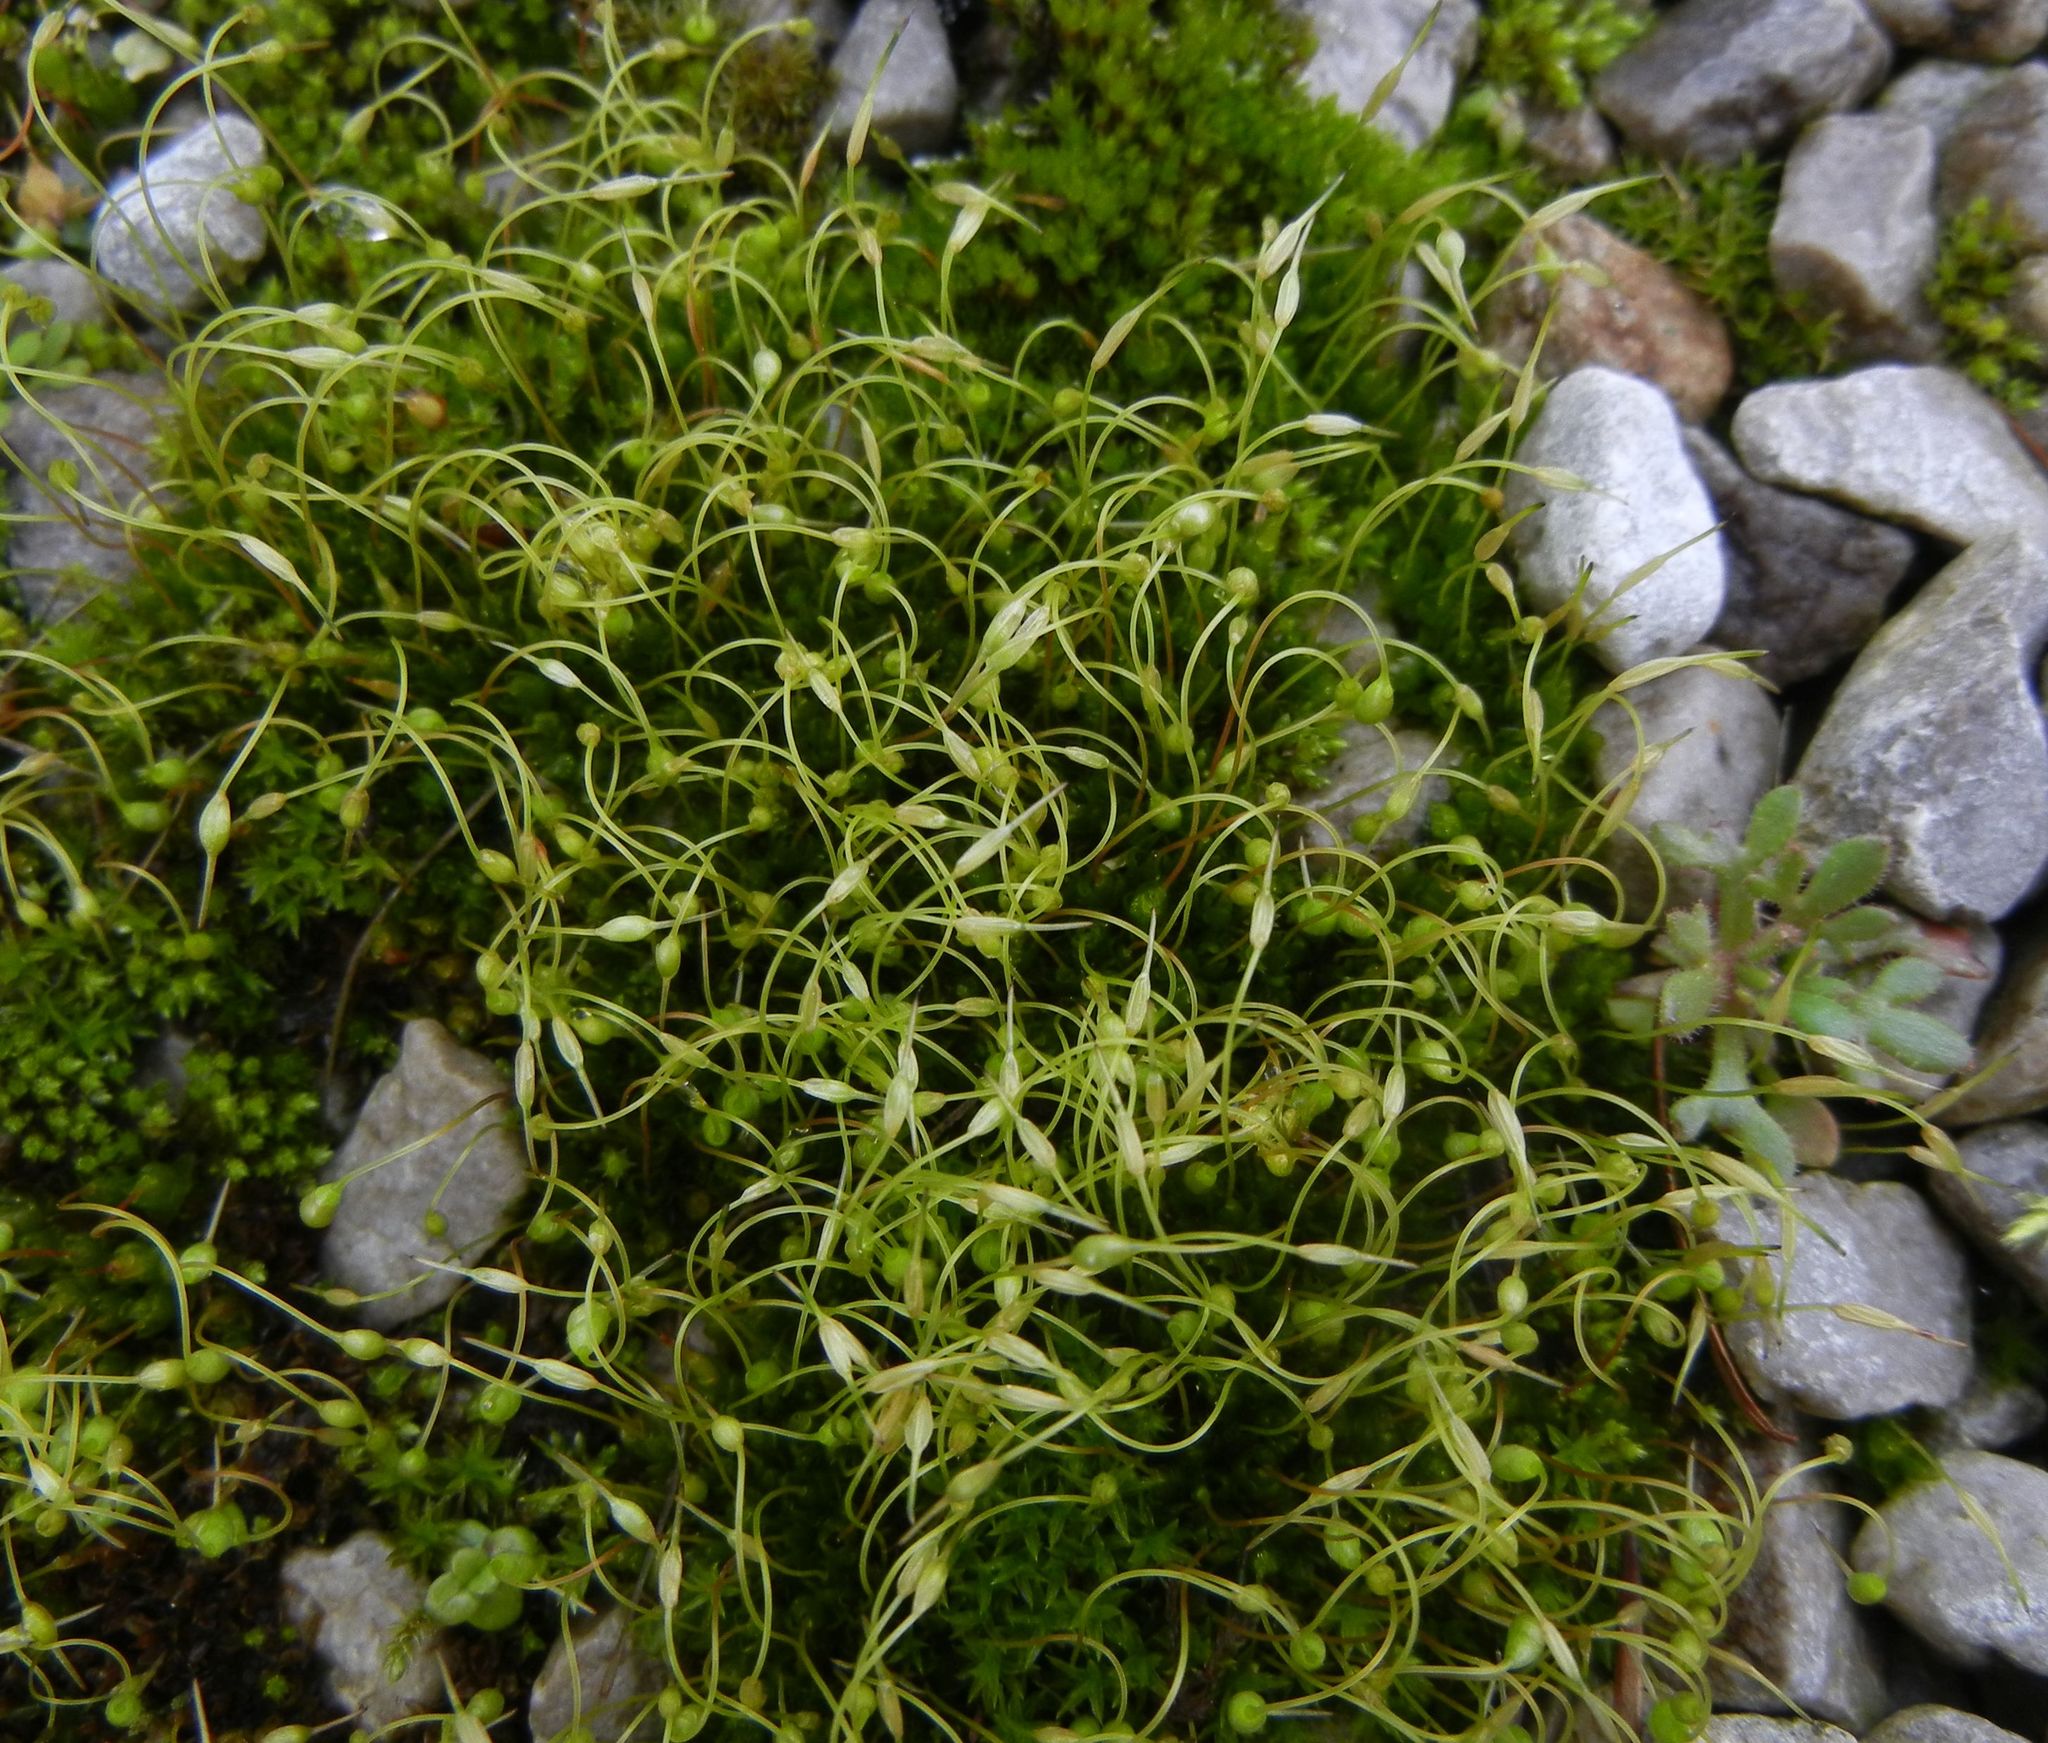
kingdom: Plantae
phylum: Bryophyta
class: Bryopsida
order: Funariales
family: Funariaceae
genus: Funaria
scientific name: Funaria hygrometrica
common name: Common cord moss
